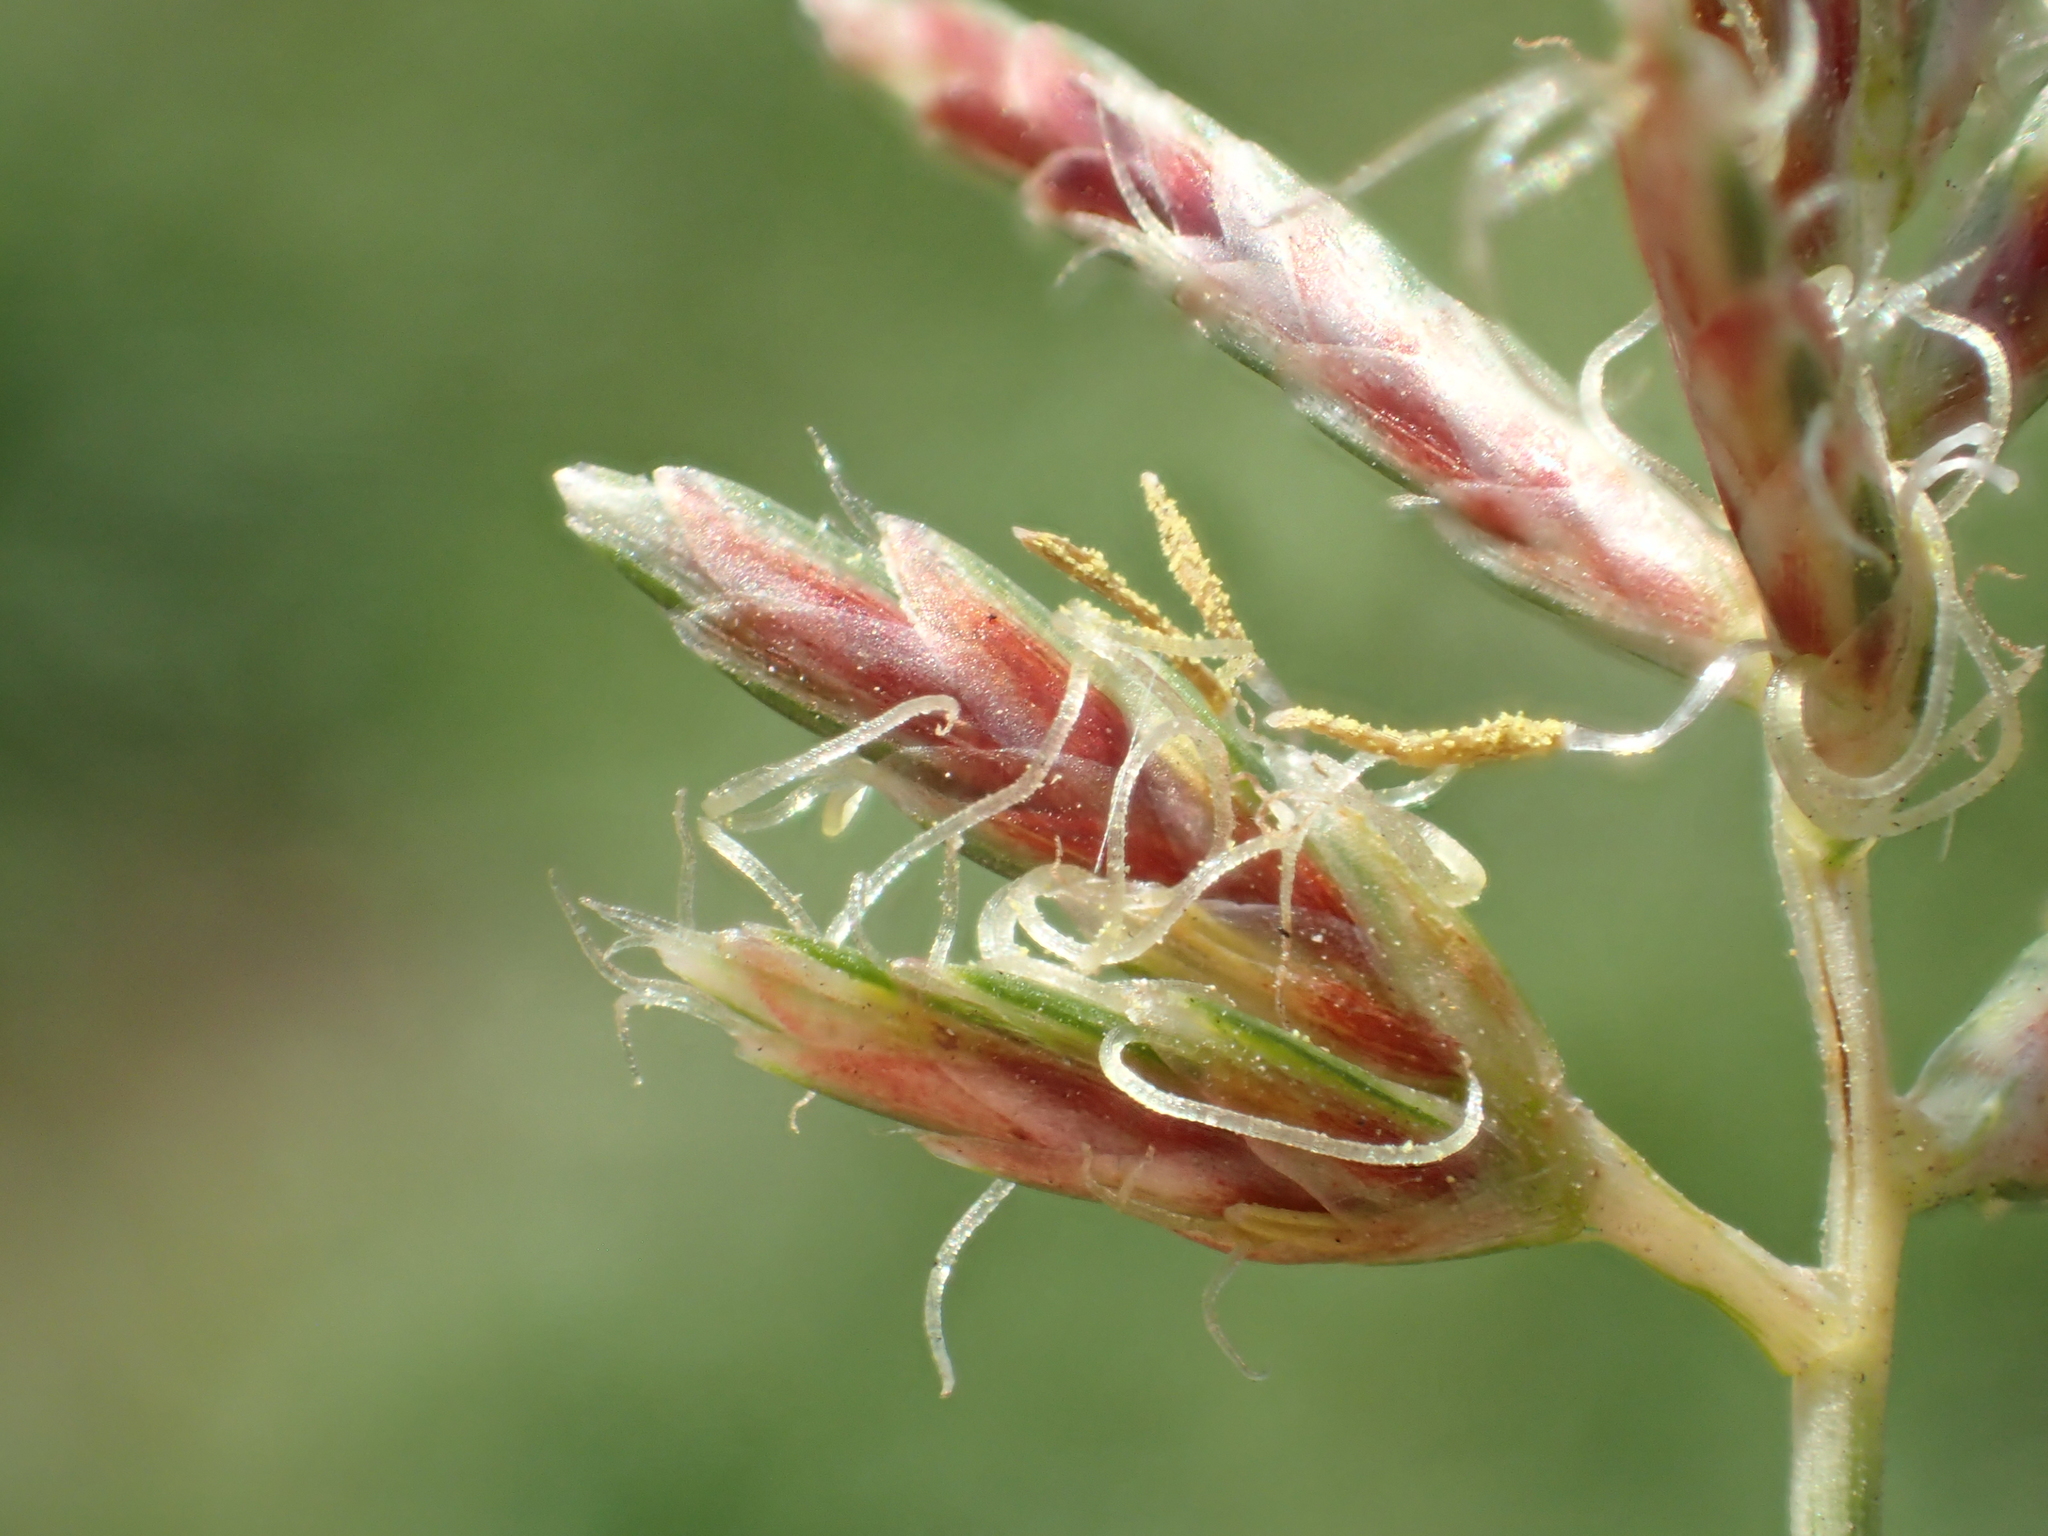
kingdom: Plantae
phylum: Tracheophyta
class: Liliopsida
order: Poales
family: Cyperaceae
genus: Cyperus
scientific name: Cyperus rotundus
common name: Nutgrass
